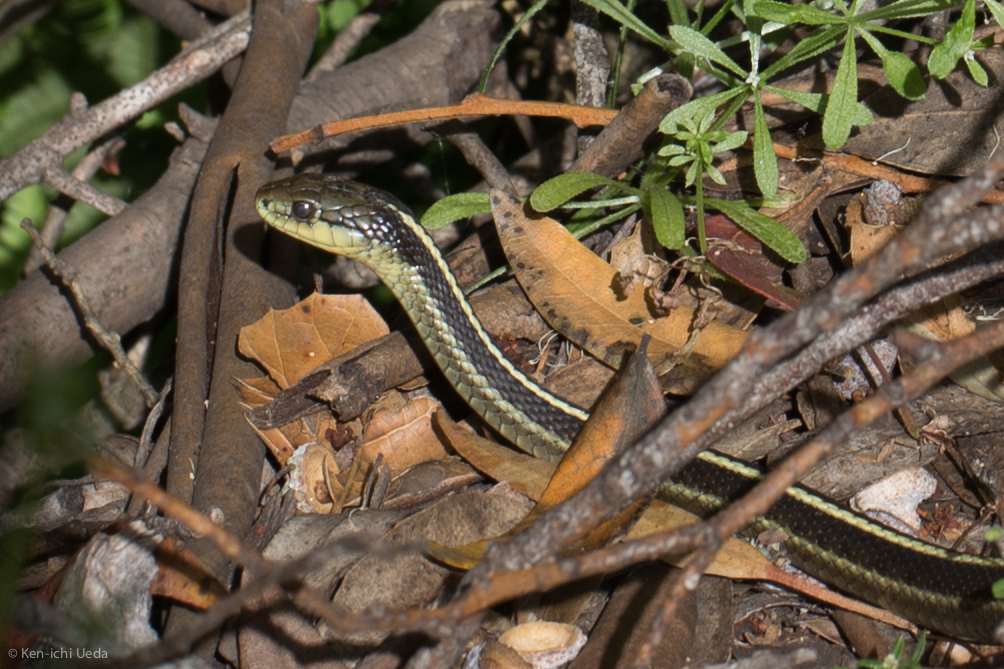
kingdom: Animalia
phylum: Chordata
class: Squamata
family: Colubridae
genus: Thamnophis
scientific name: Thamnophis elegans
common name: Western terrestrial garter snake
